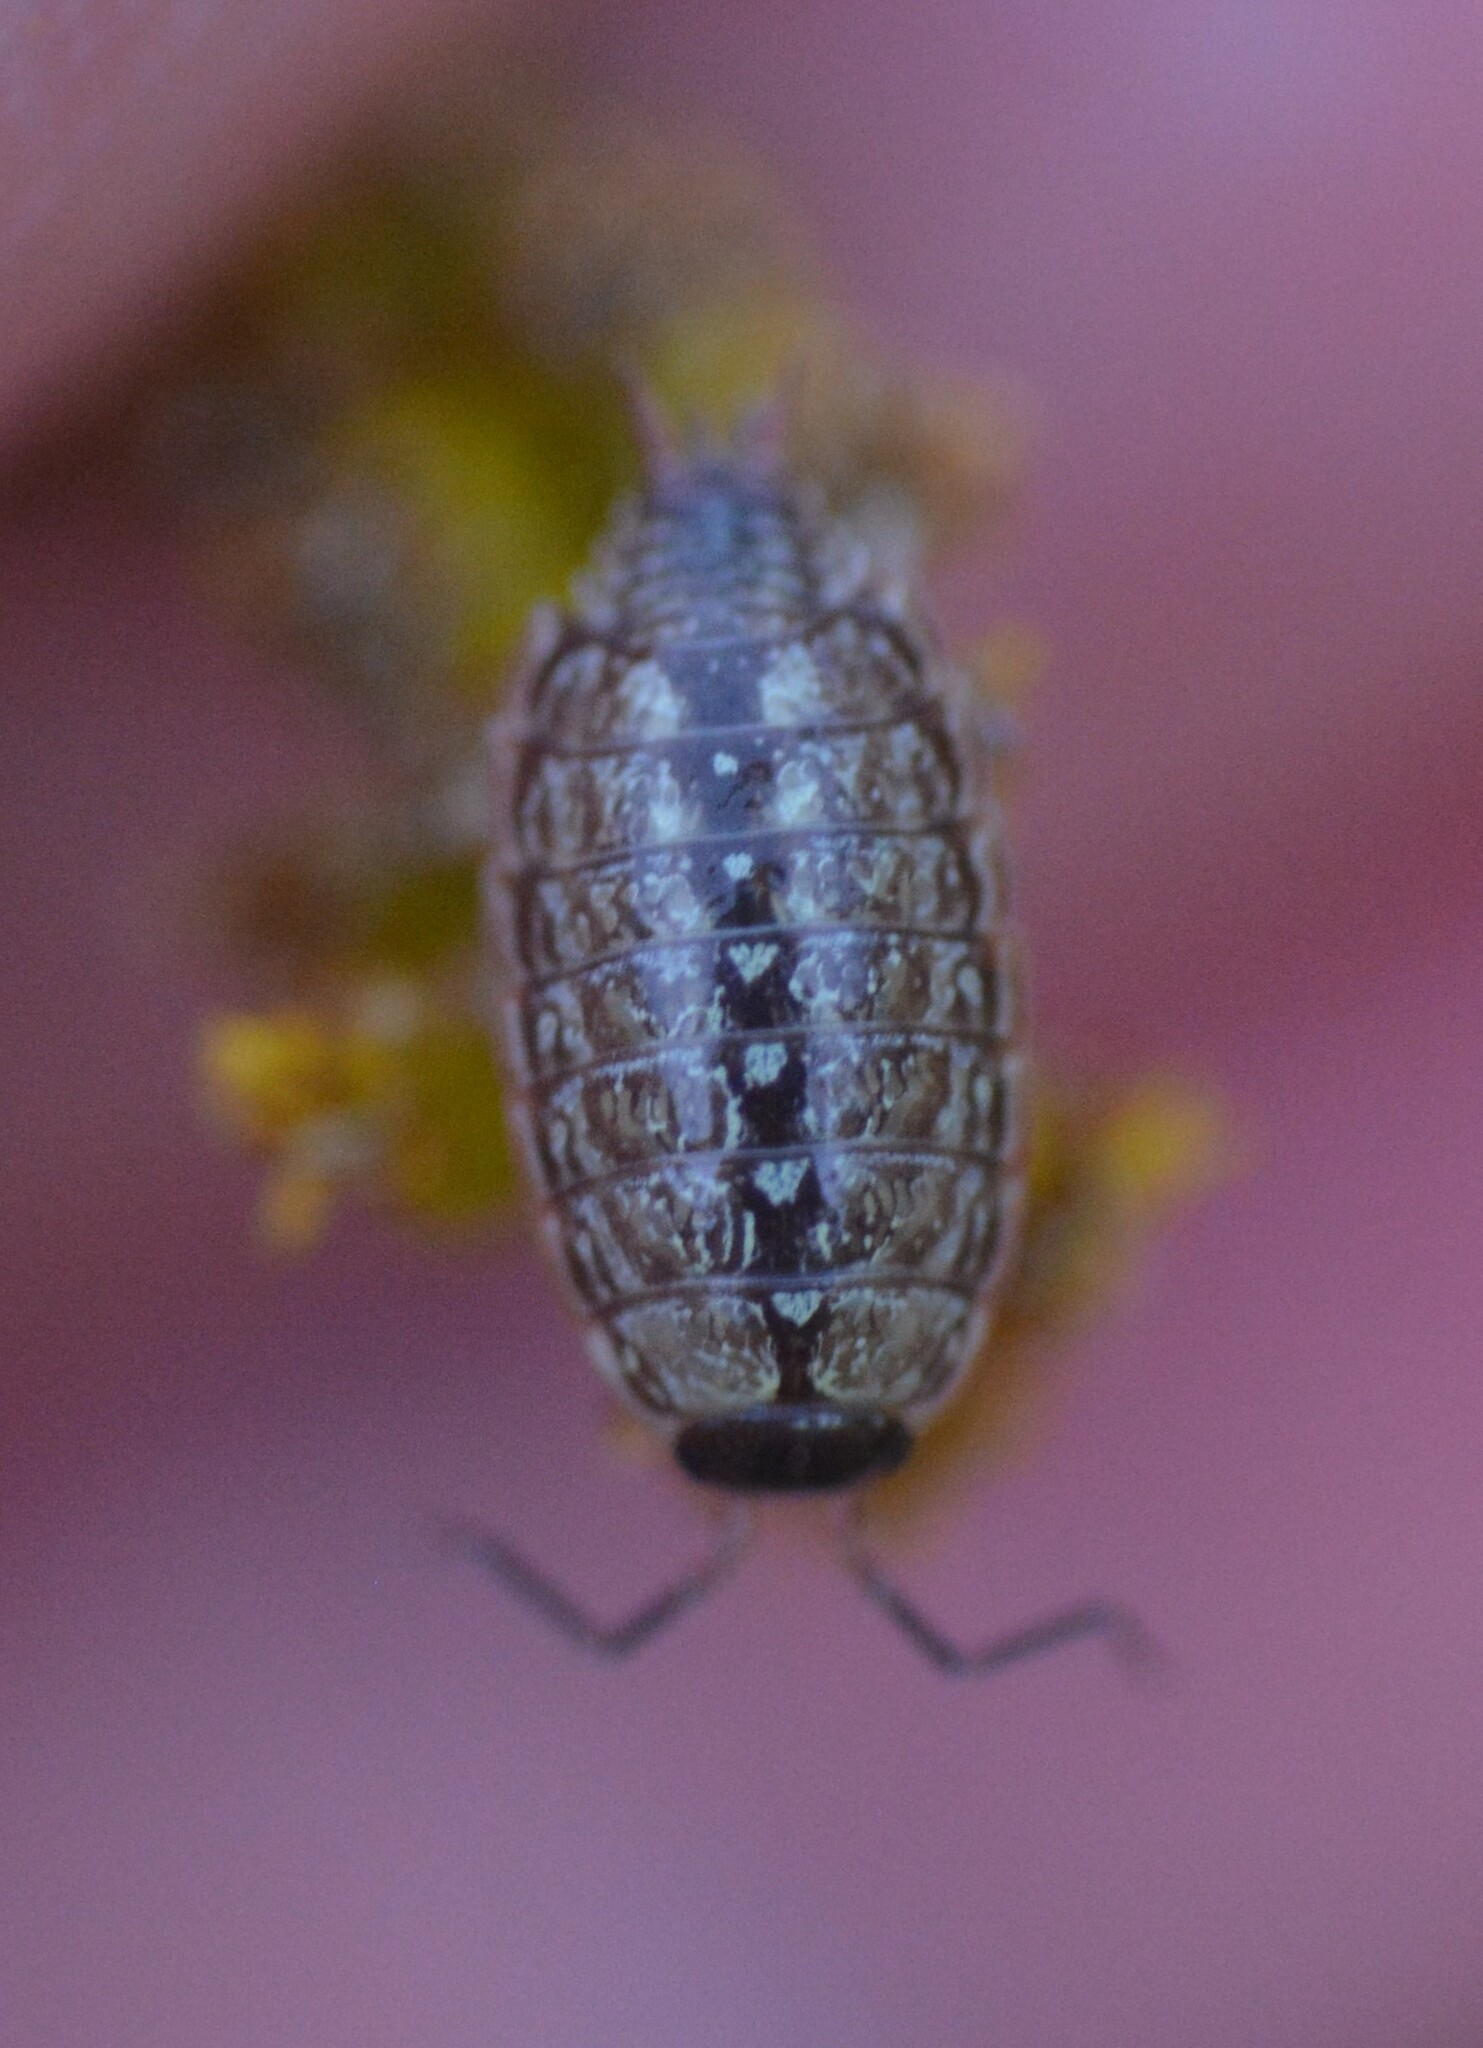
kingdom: Animalia
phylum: Arthropoda
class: Malacostraca
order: Isopoda
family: Philosciidae
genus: Philoscia
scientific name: Philoscia muscorum
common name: Common striped woodlouse
